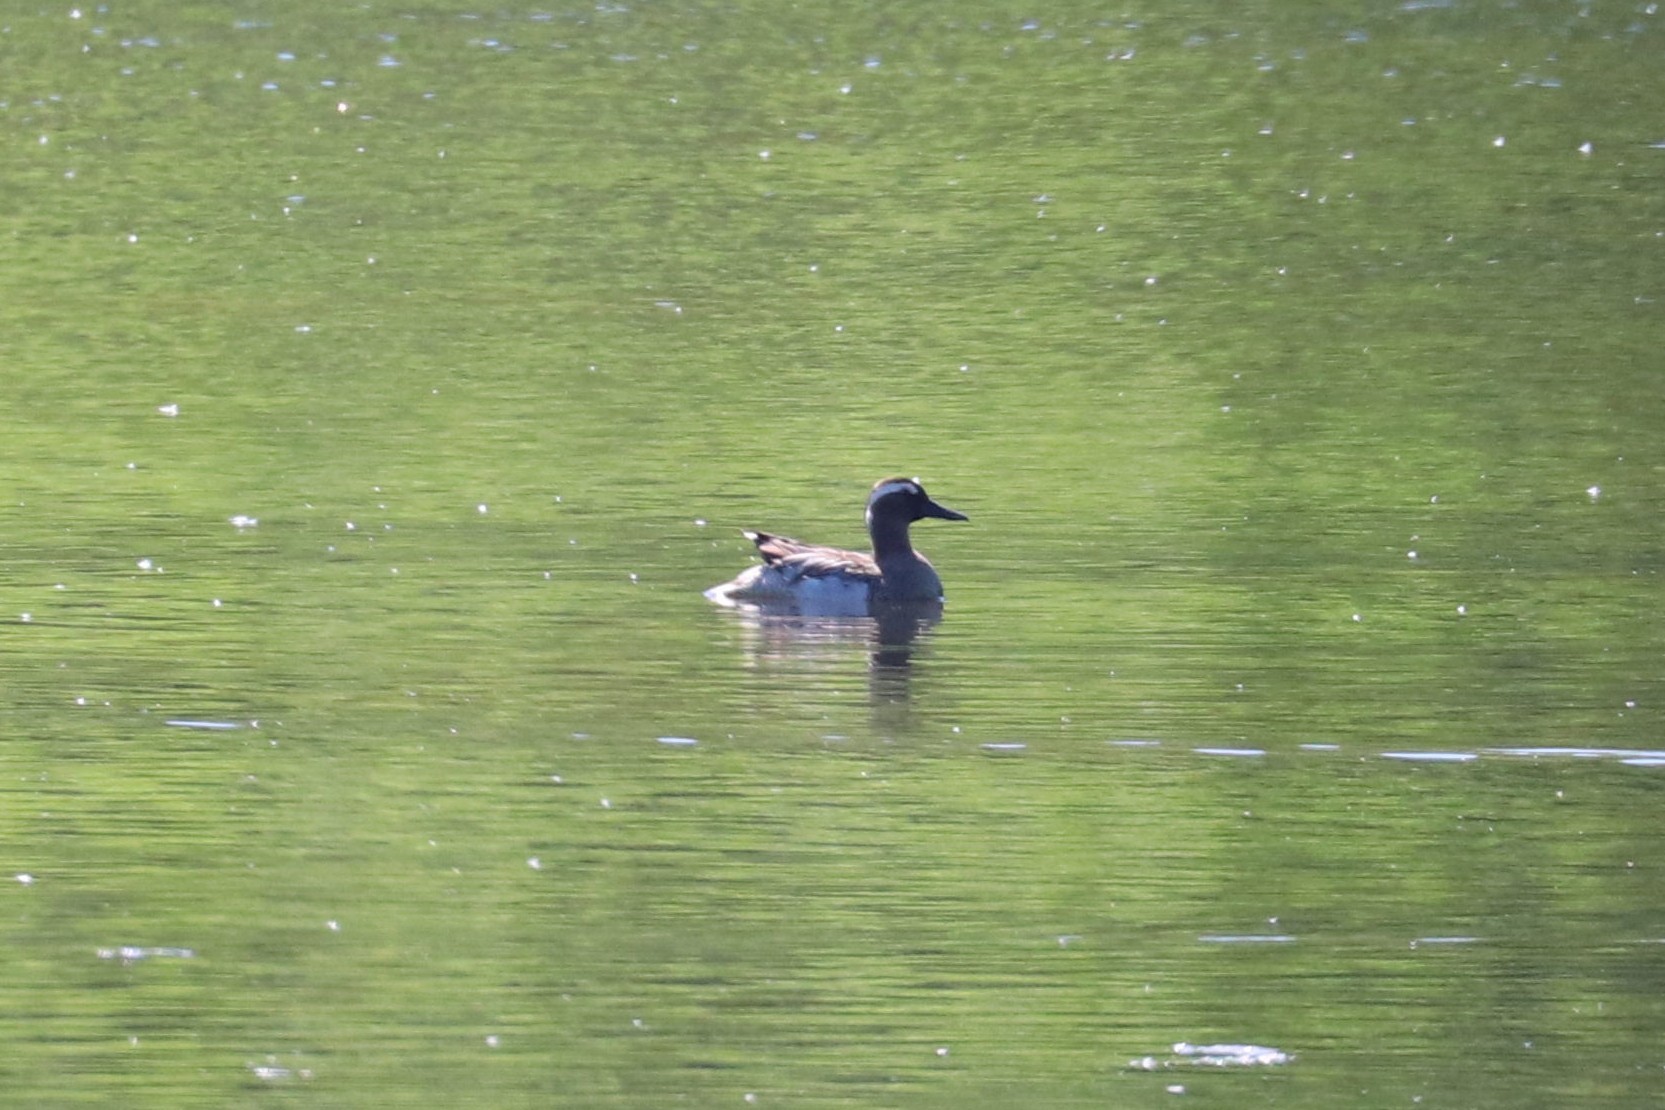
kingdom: Animalia
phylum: Chordata
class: Aves
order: Anseriformes
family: Anatidae
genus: Spatula
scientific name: Spatula querquedula
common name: Garganey
